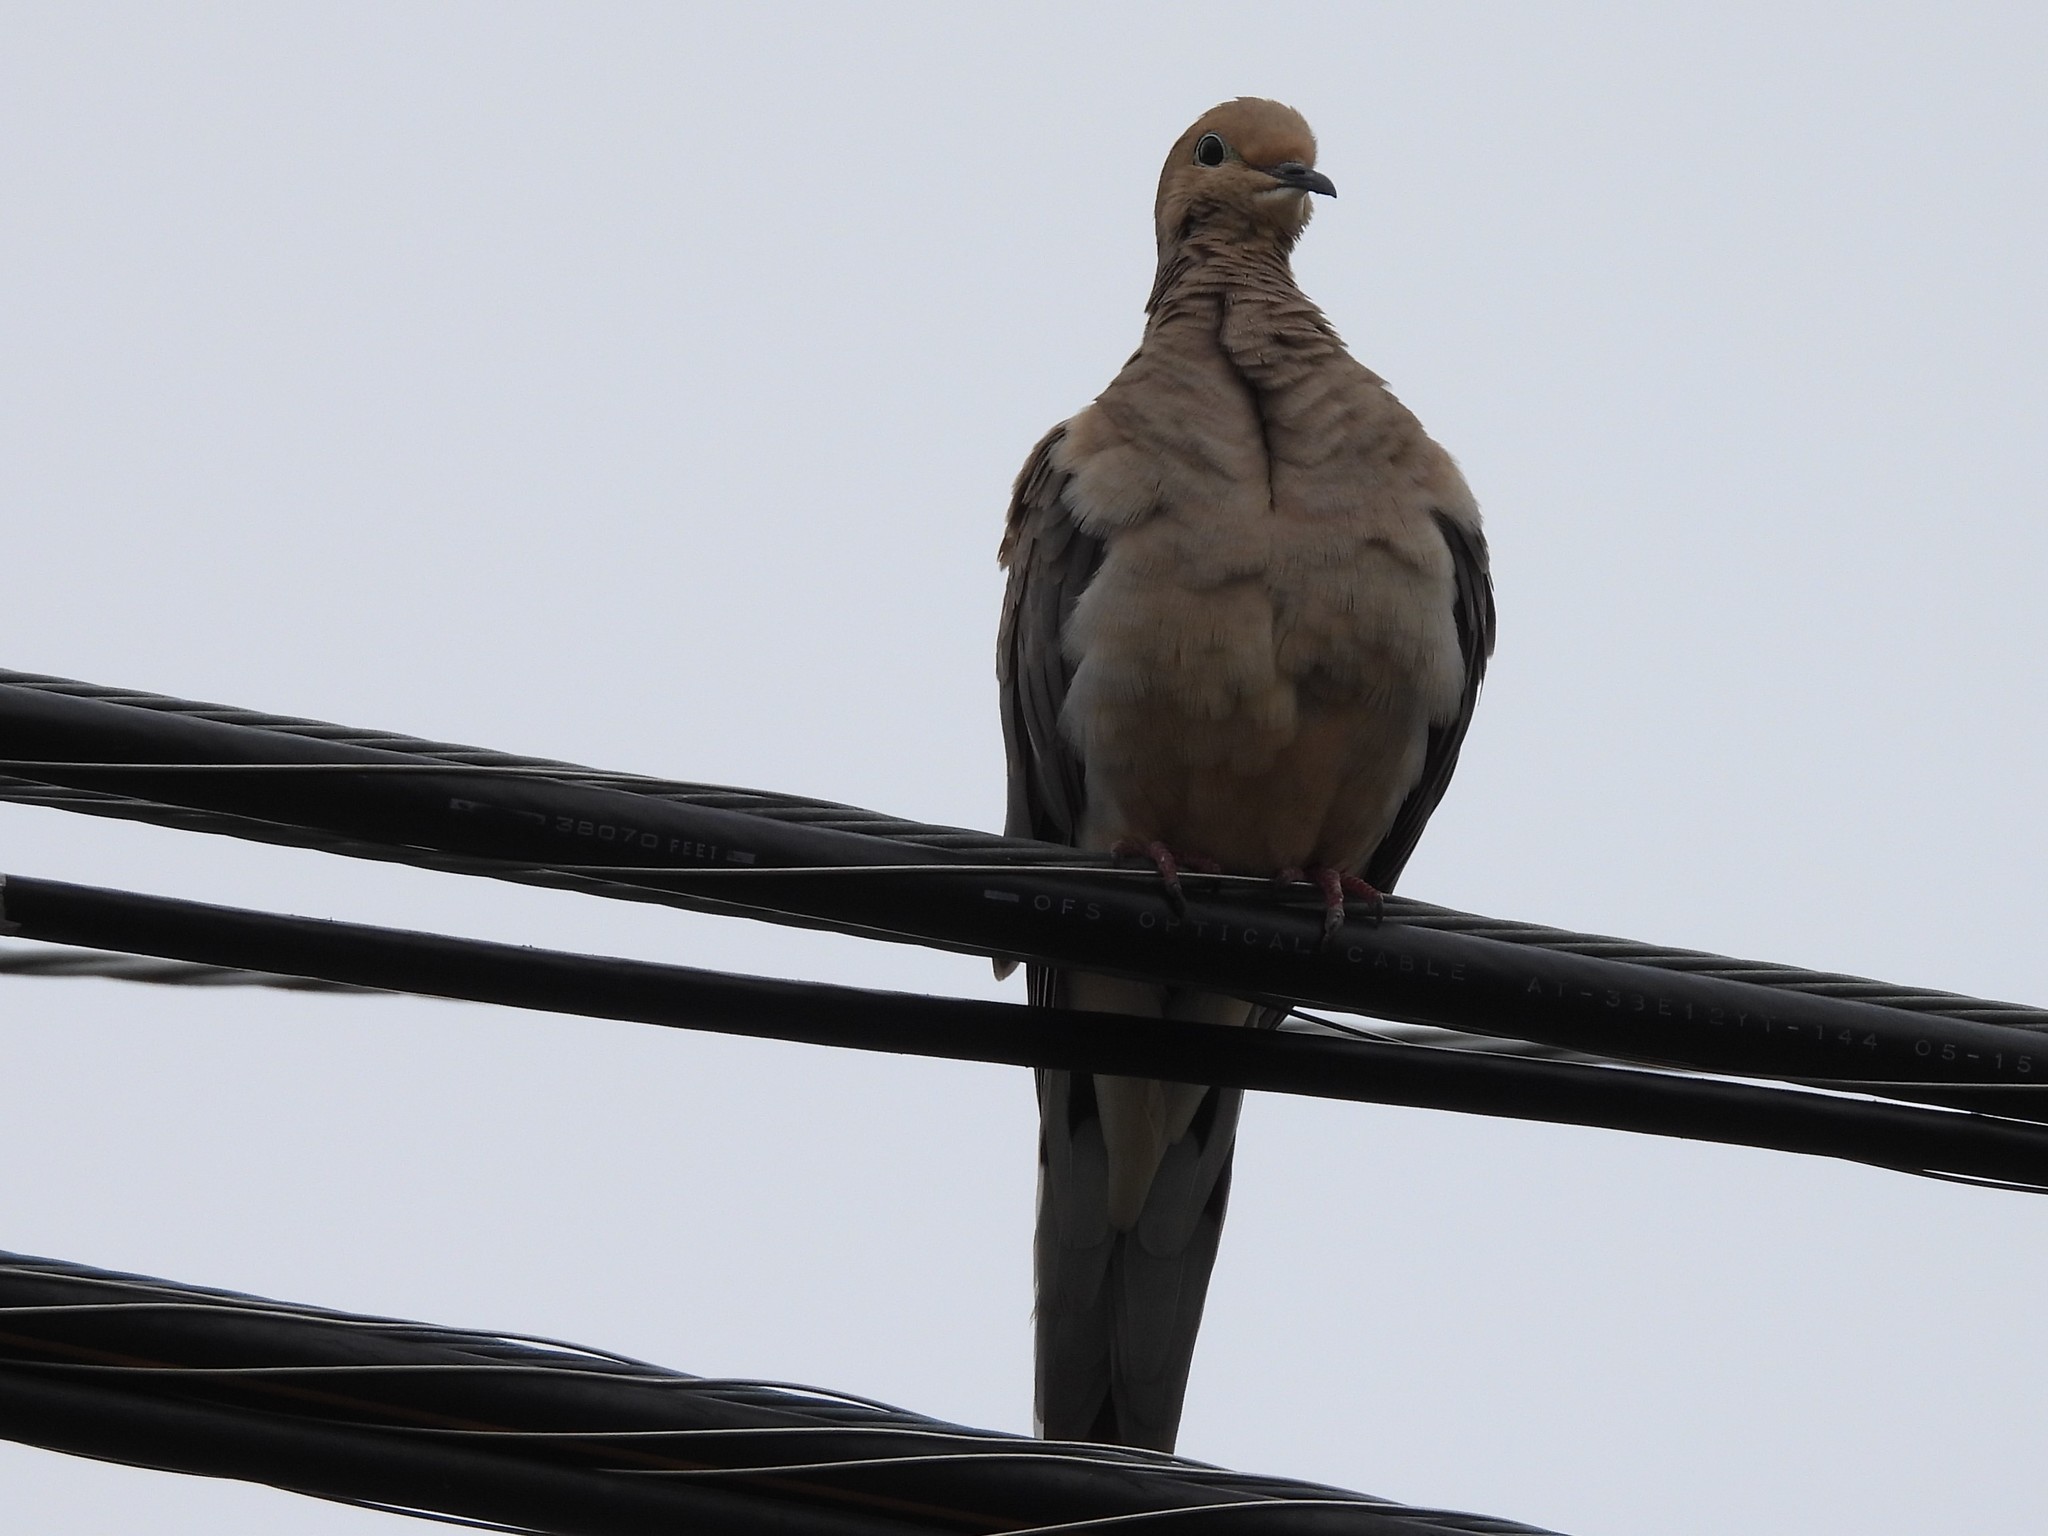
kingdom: Animalia
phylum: Chordata
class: Aves
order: Columbiformes
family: Columbidae
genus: Zenaida
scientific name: Zenaida macroura
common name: Mourning dove
